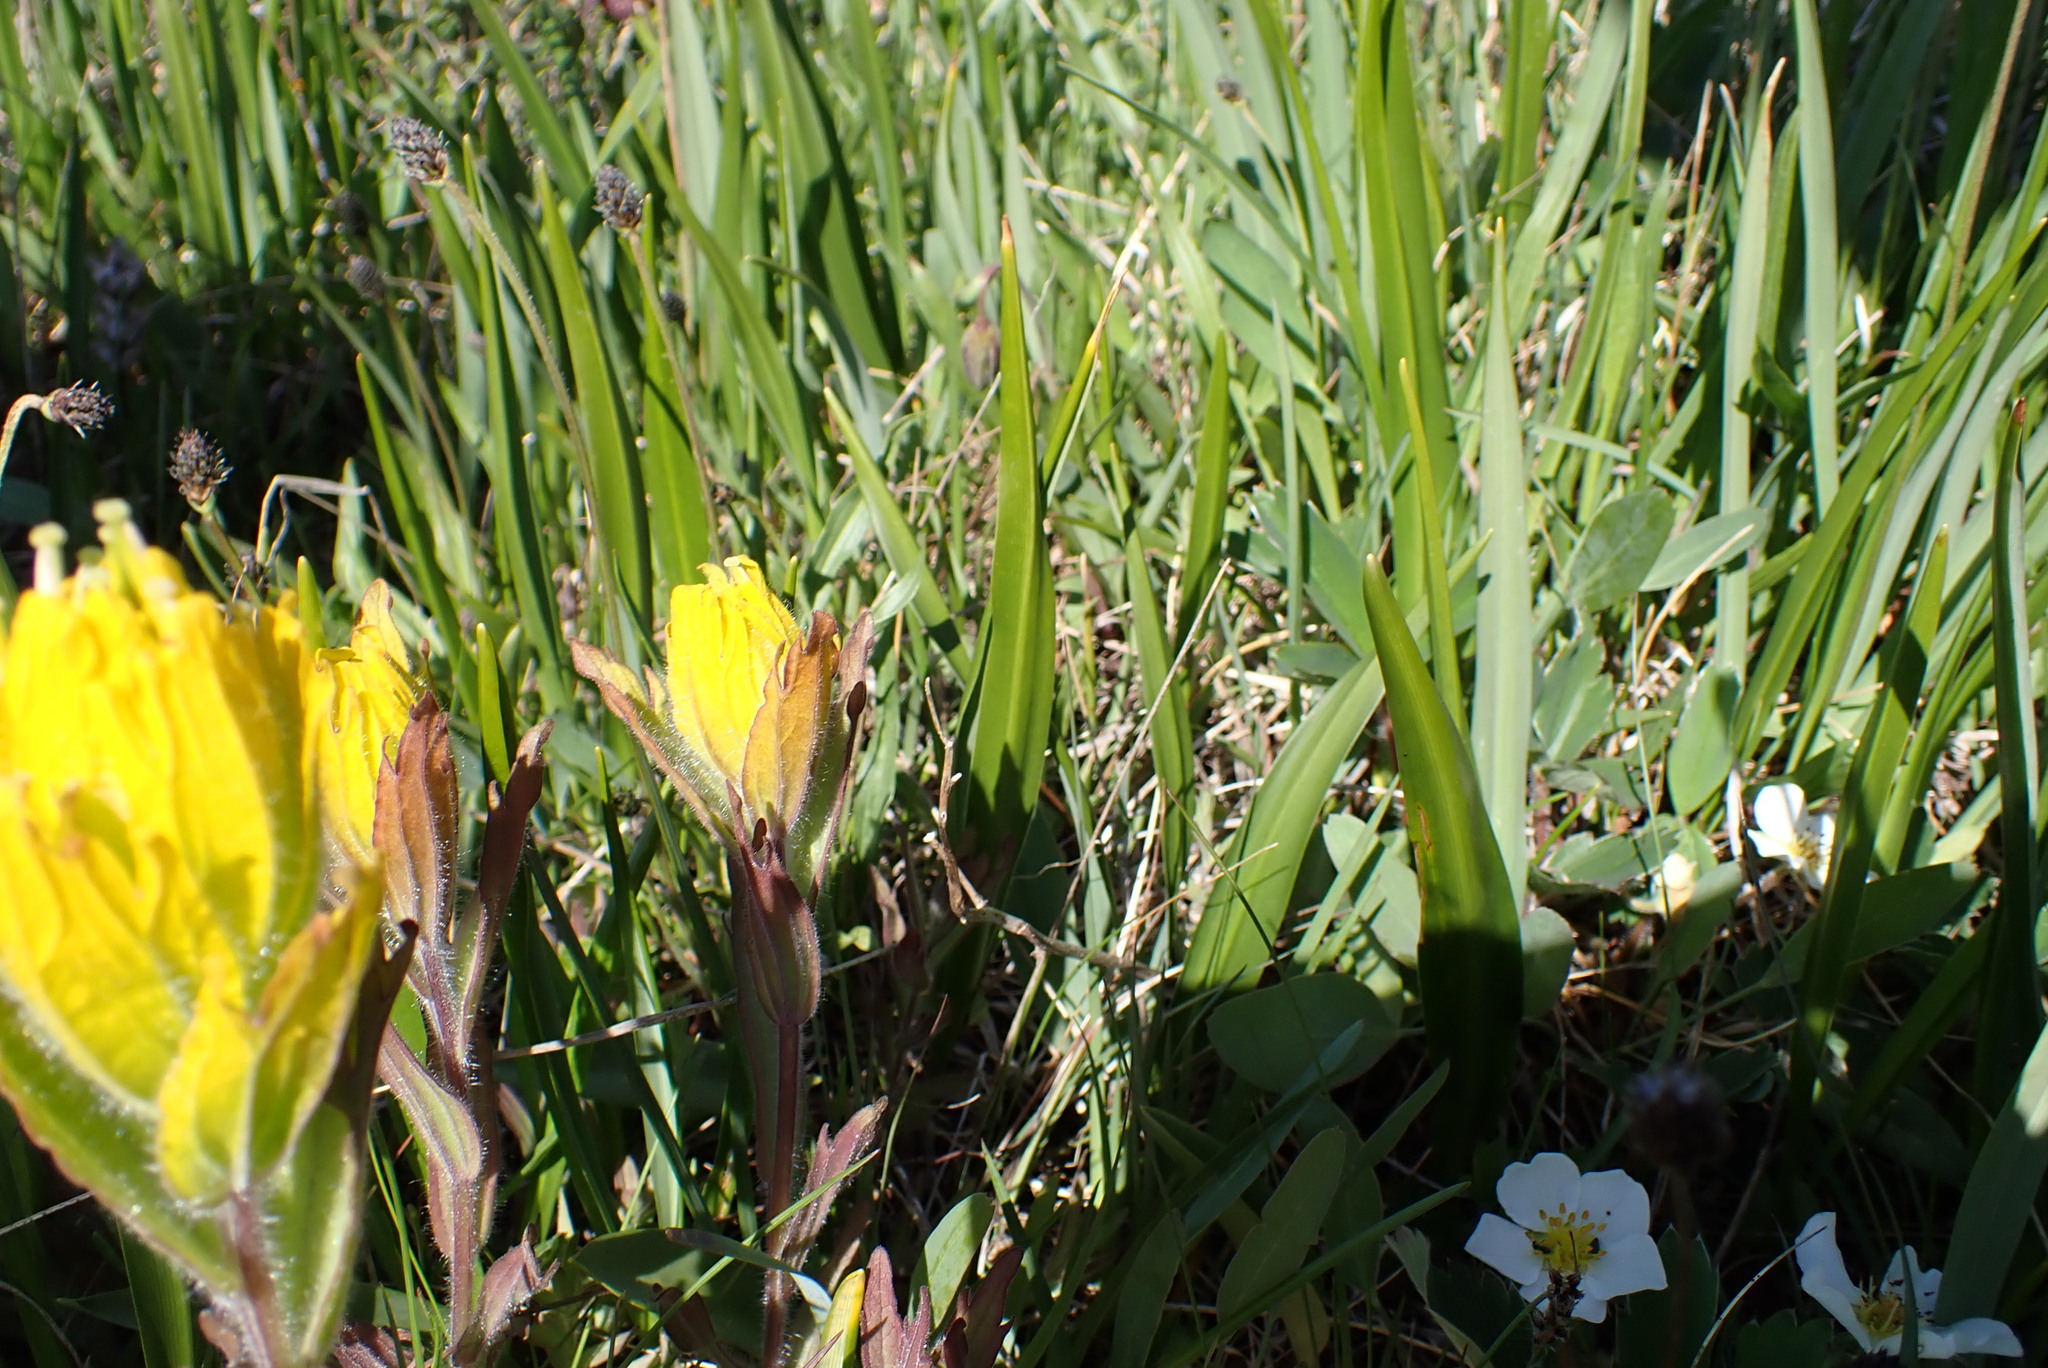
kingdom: Plantae
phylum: Tracheophyta
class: Magnoliopsida
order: Lamiales
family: Orobanchaceae
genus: Castilleja
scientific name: Castilleja levisecta
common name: Golden paintbrush
